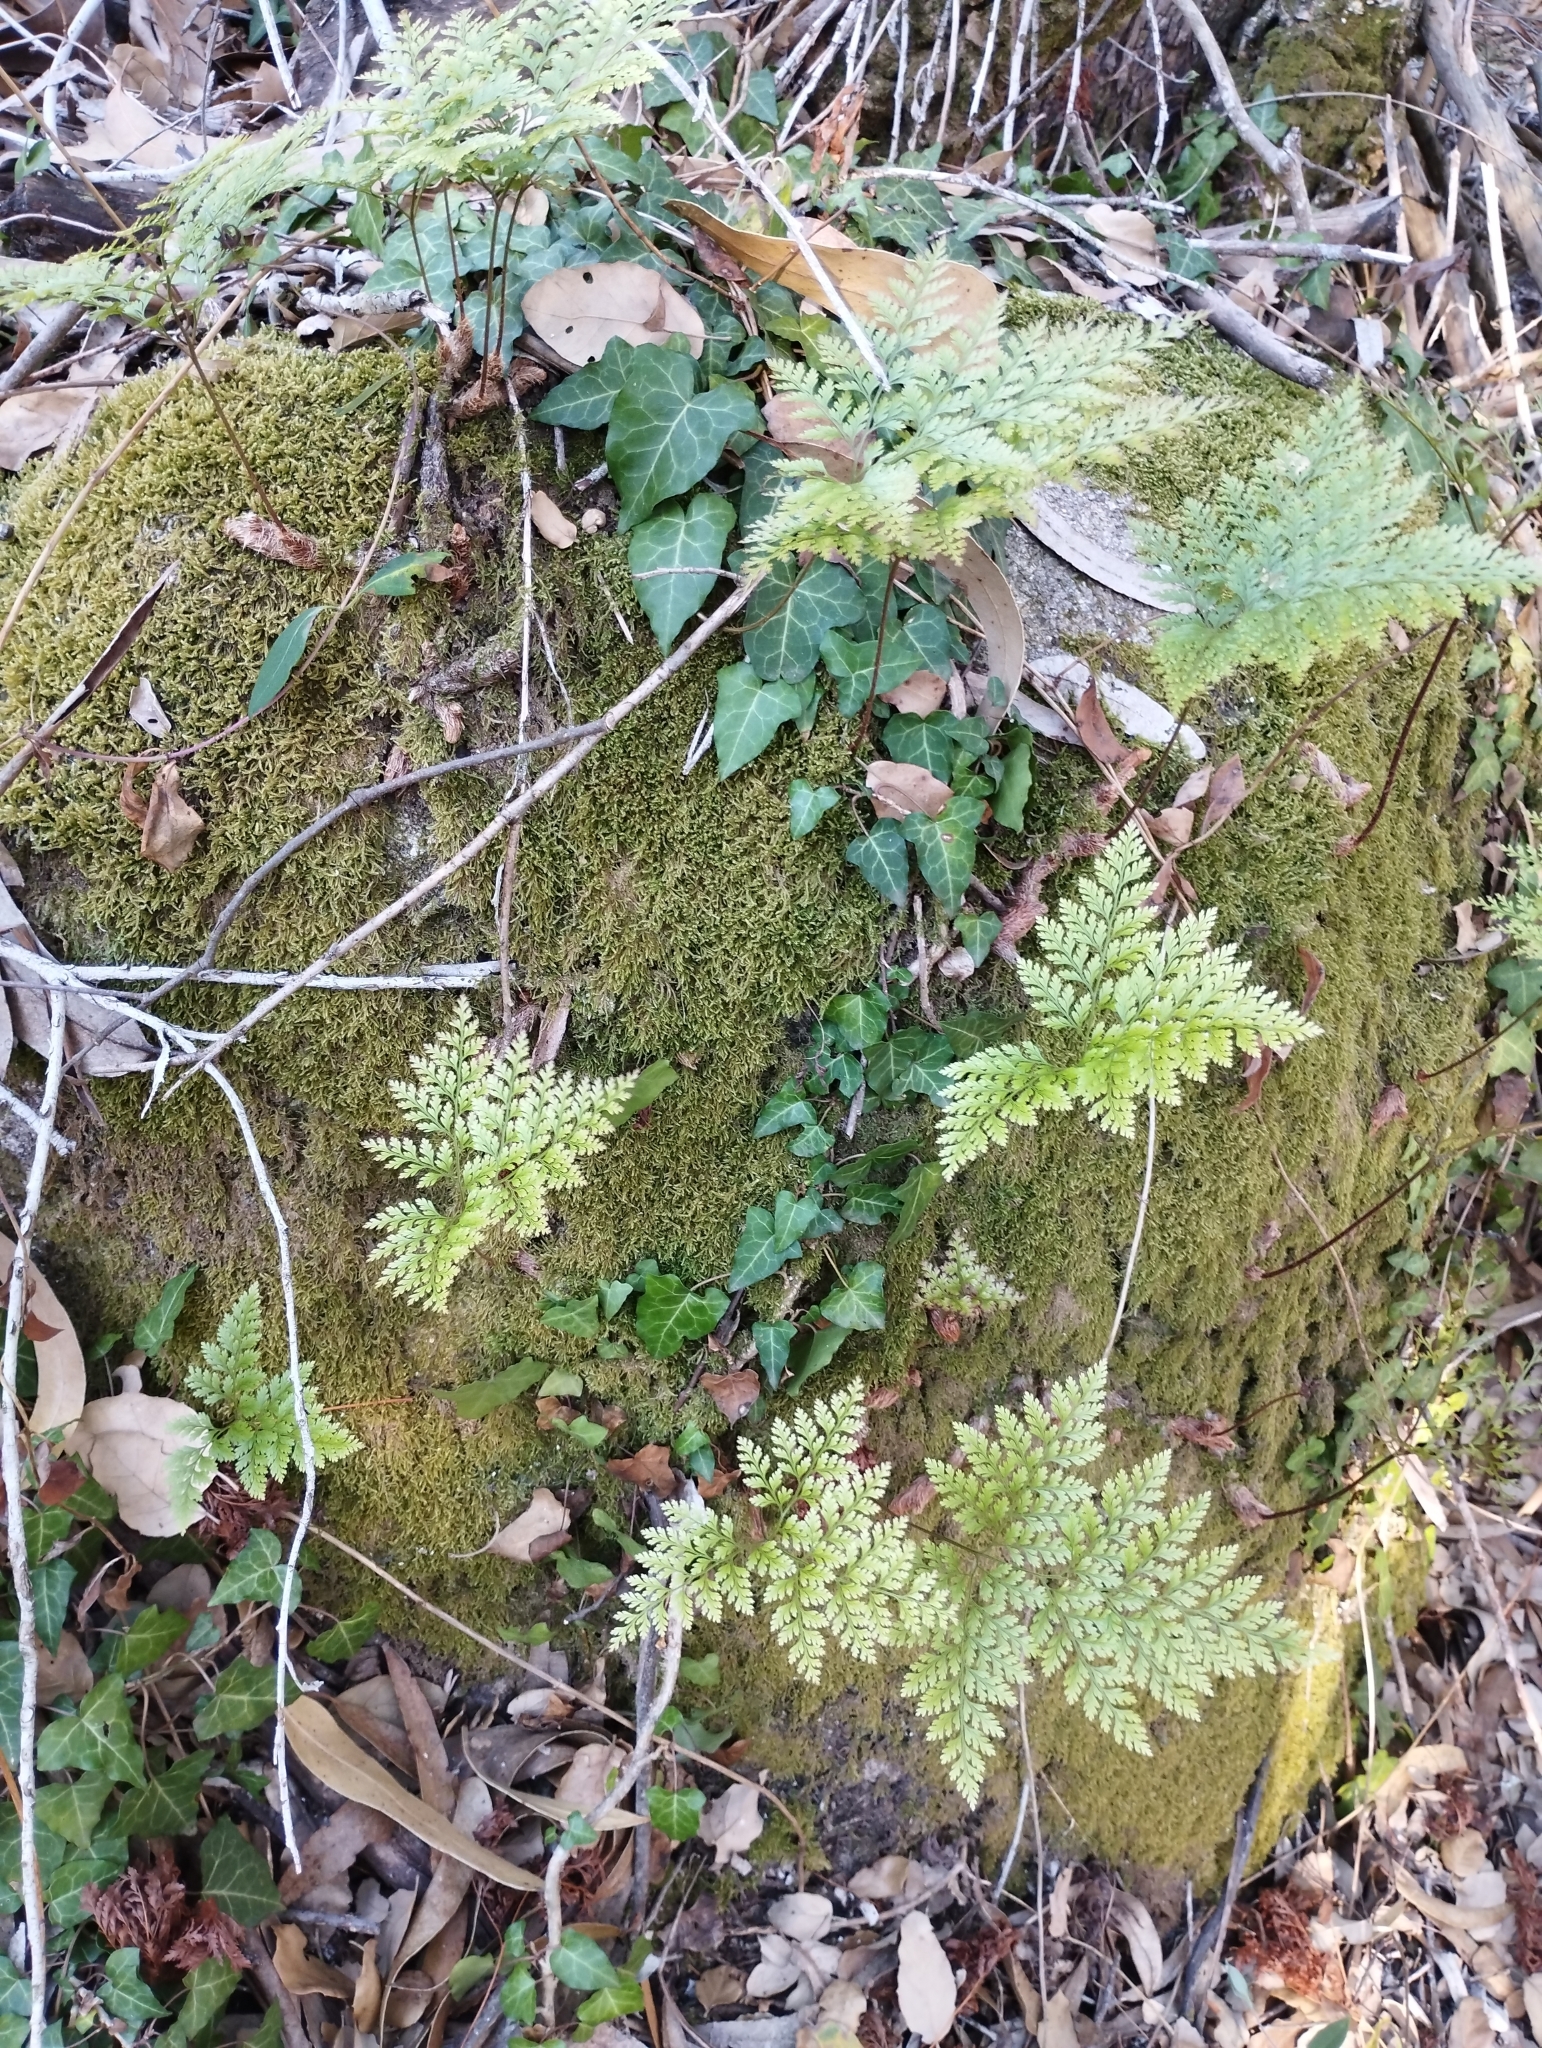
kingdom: Plantae
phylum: Tracheophyta
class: Polypodiopsida
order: Polypodiales
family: Davalliaceae
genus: Davallia
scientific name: Davallia canariensis
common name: Hare's-foot fern
